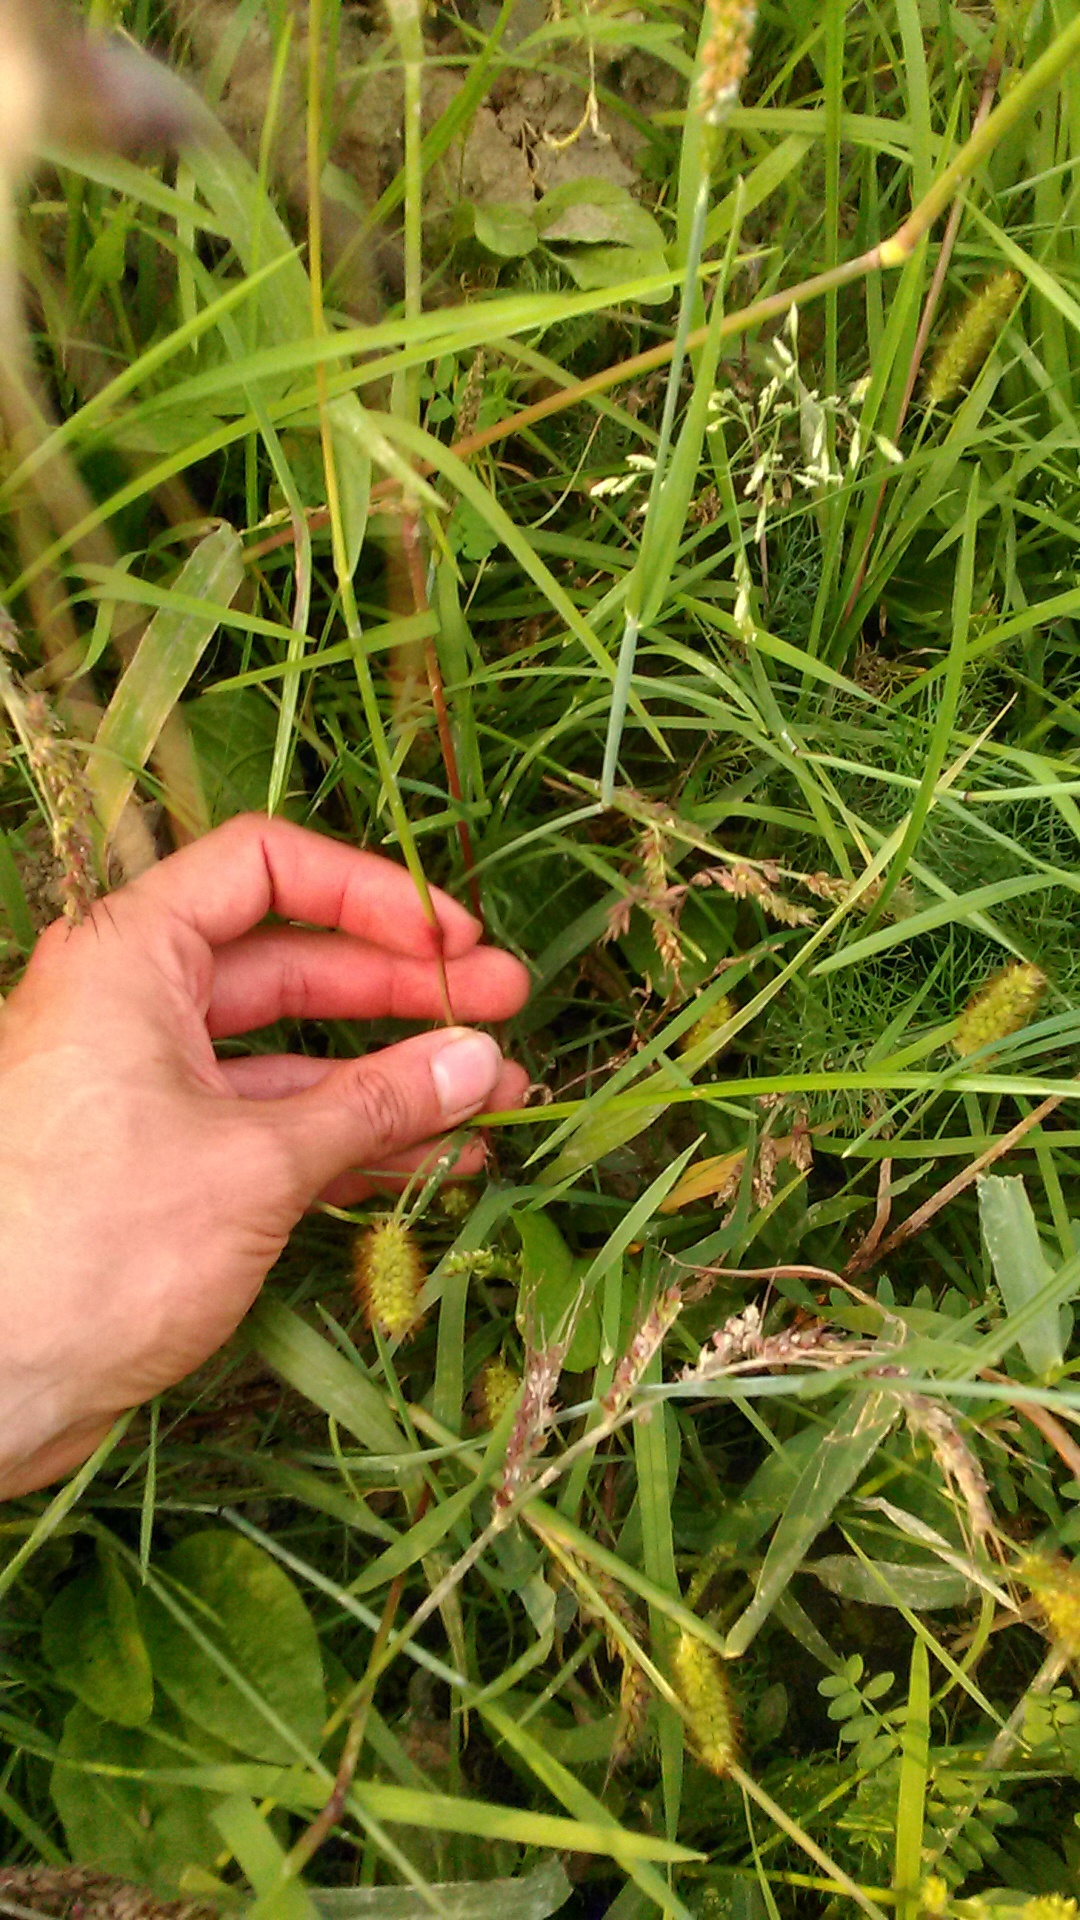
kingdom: Plantae
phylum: Tracheophyta
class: Liliopsida
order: Poales
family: Poaceae
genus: Setaria
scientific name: Setaria pumila
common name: Yellow bristle-grass
